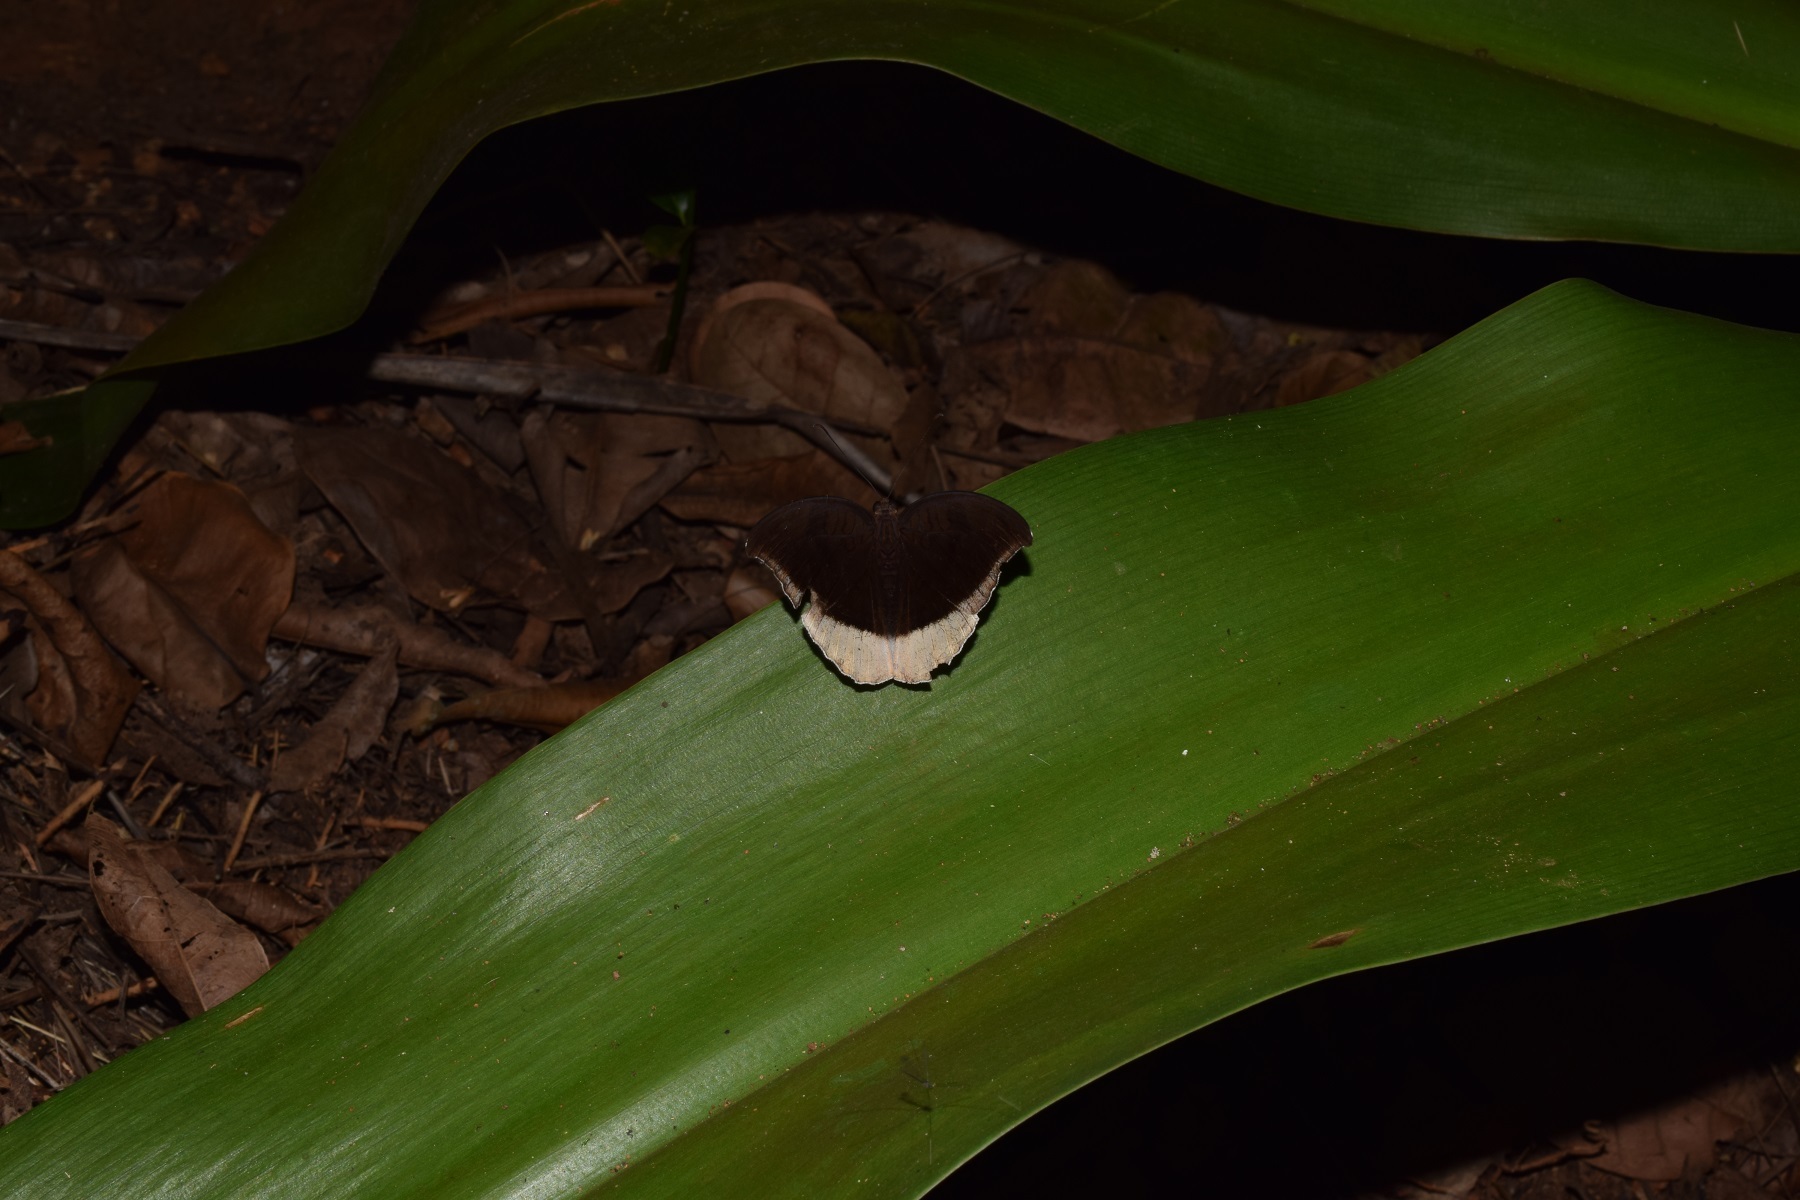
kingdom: Animalia
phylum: Arthropoda
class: Insecta
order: Lepidoptera
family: Nymphalidae
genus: Tanaecia
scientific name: Tanaecia lepidea
